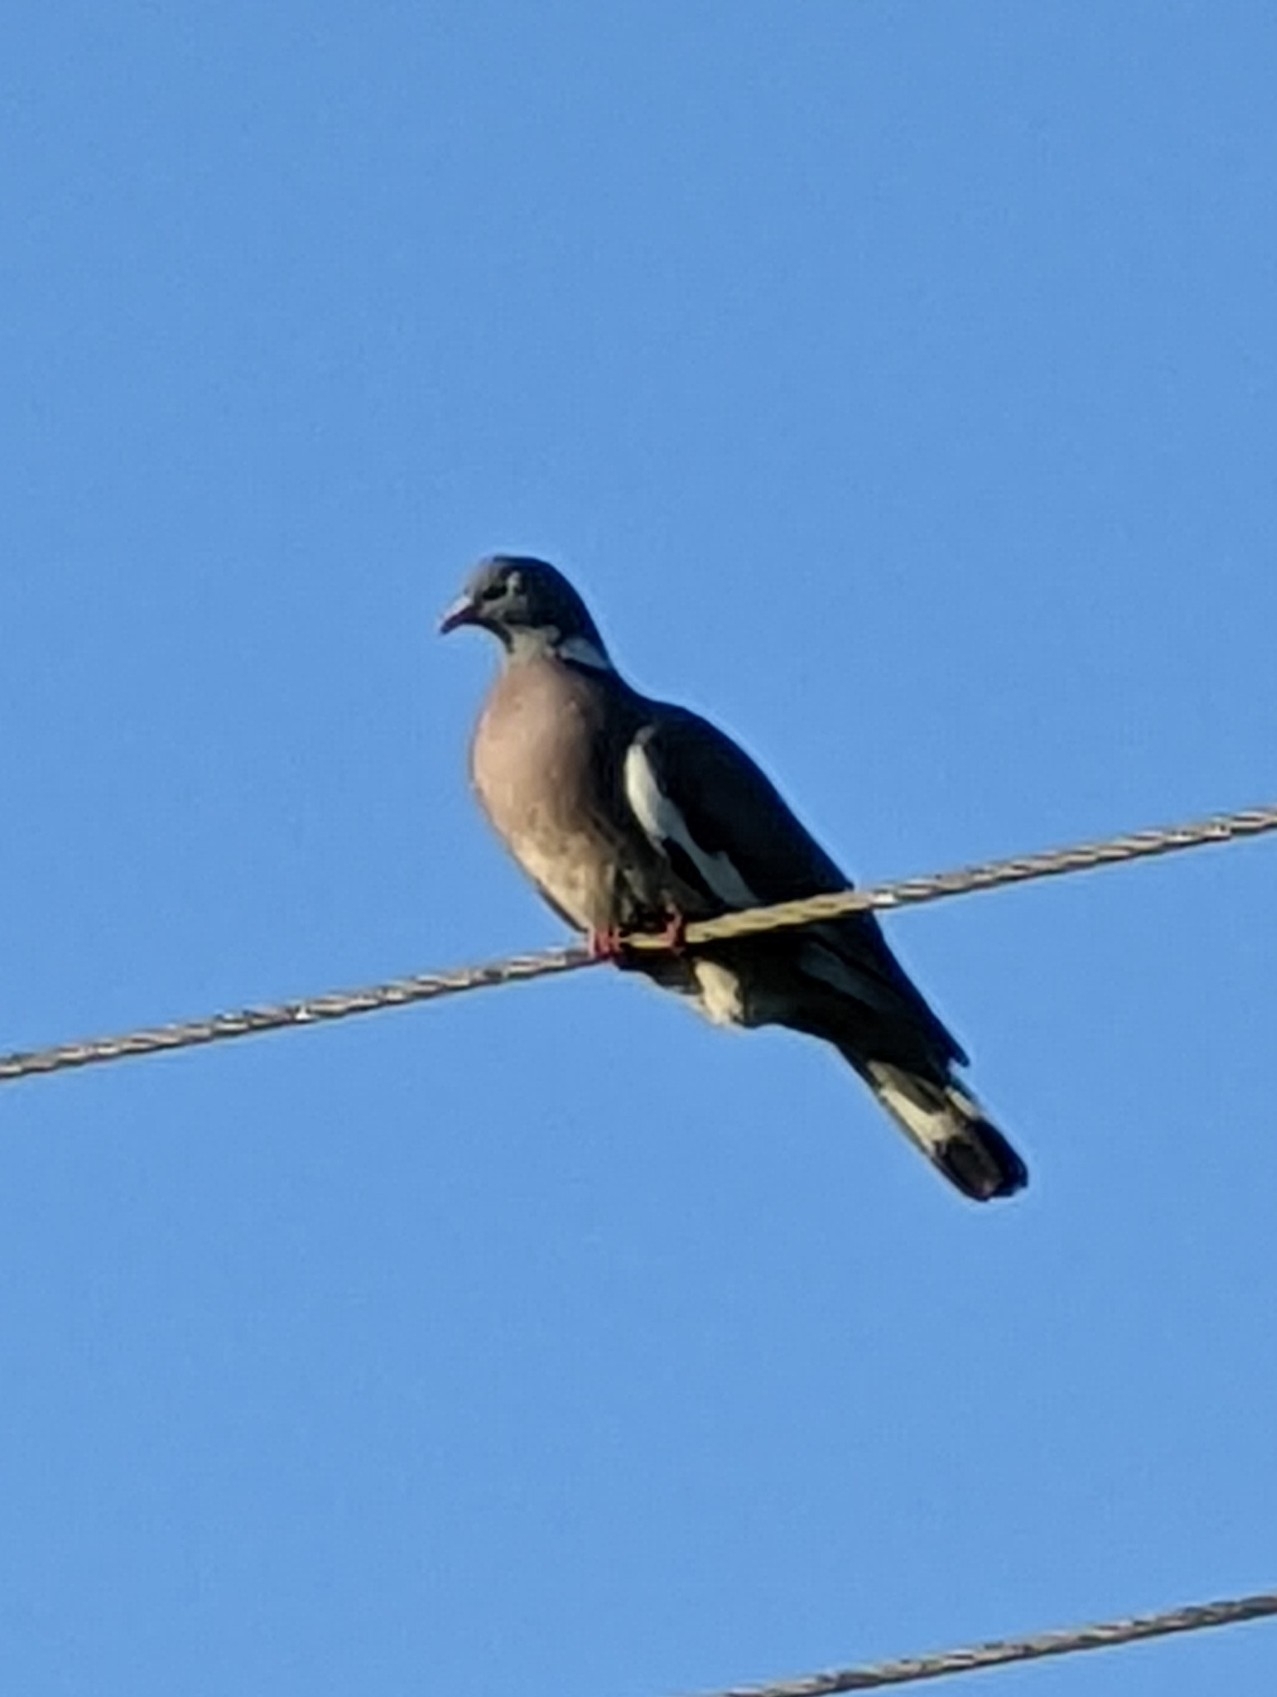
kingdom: Animalia
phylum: Chordata
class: Aves
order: Columbiformes
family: Columbidae
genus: Columba
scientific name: Columba palumbus
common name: Common wood pigeon
